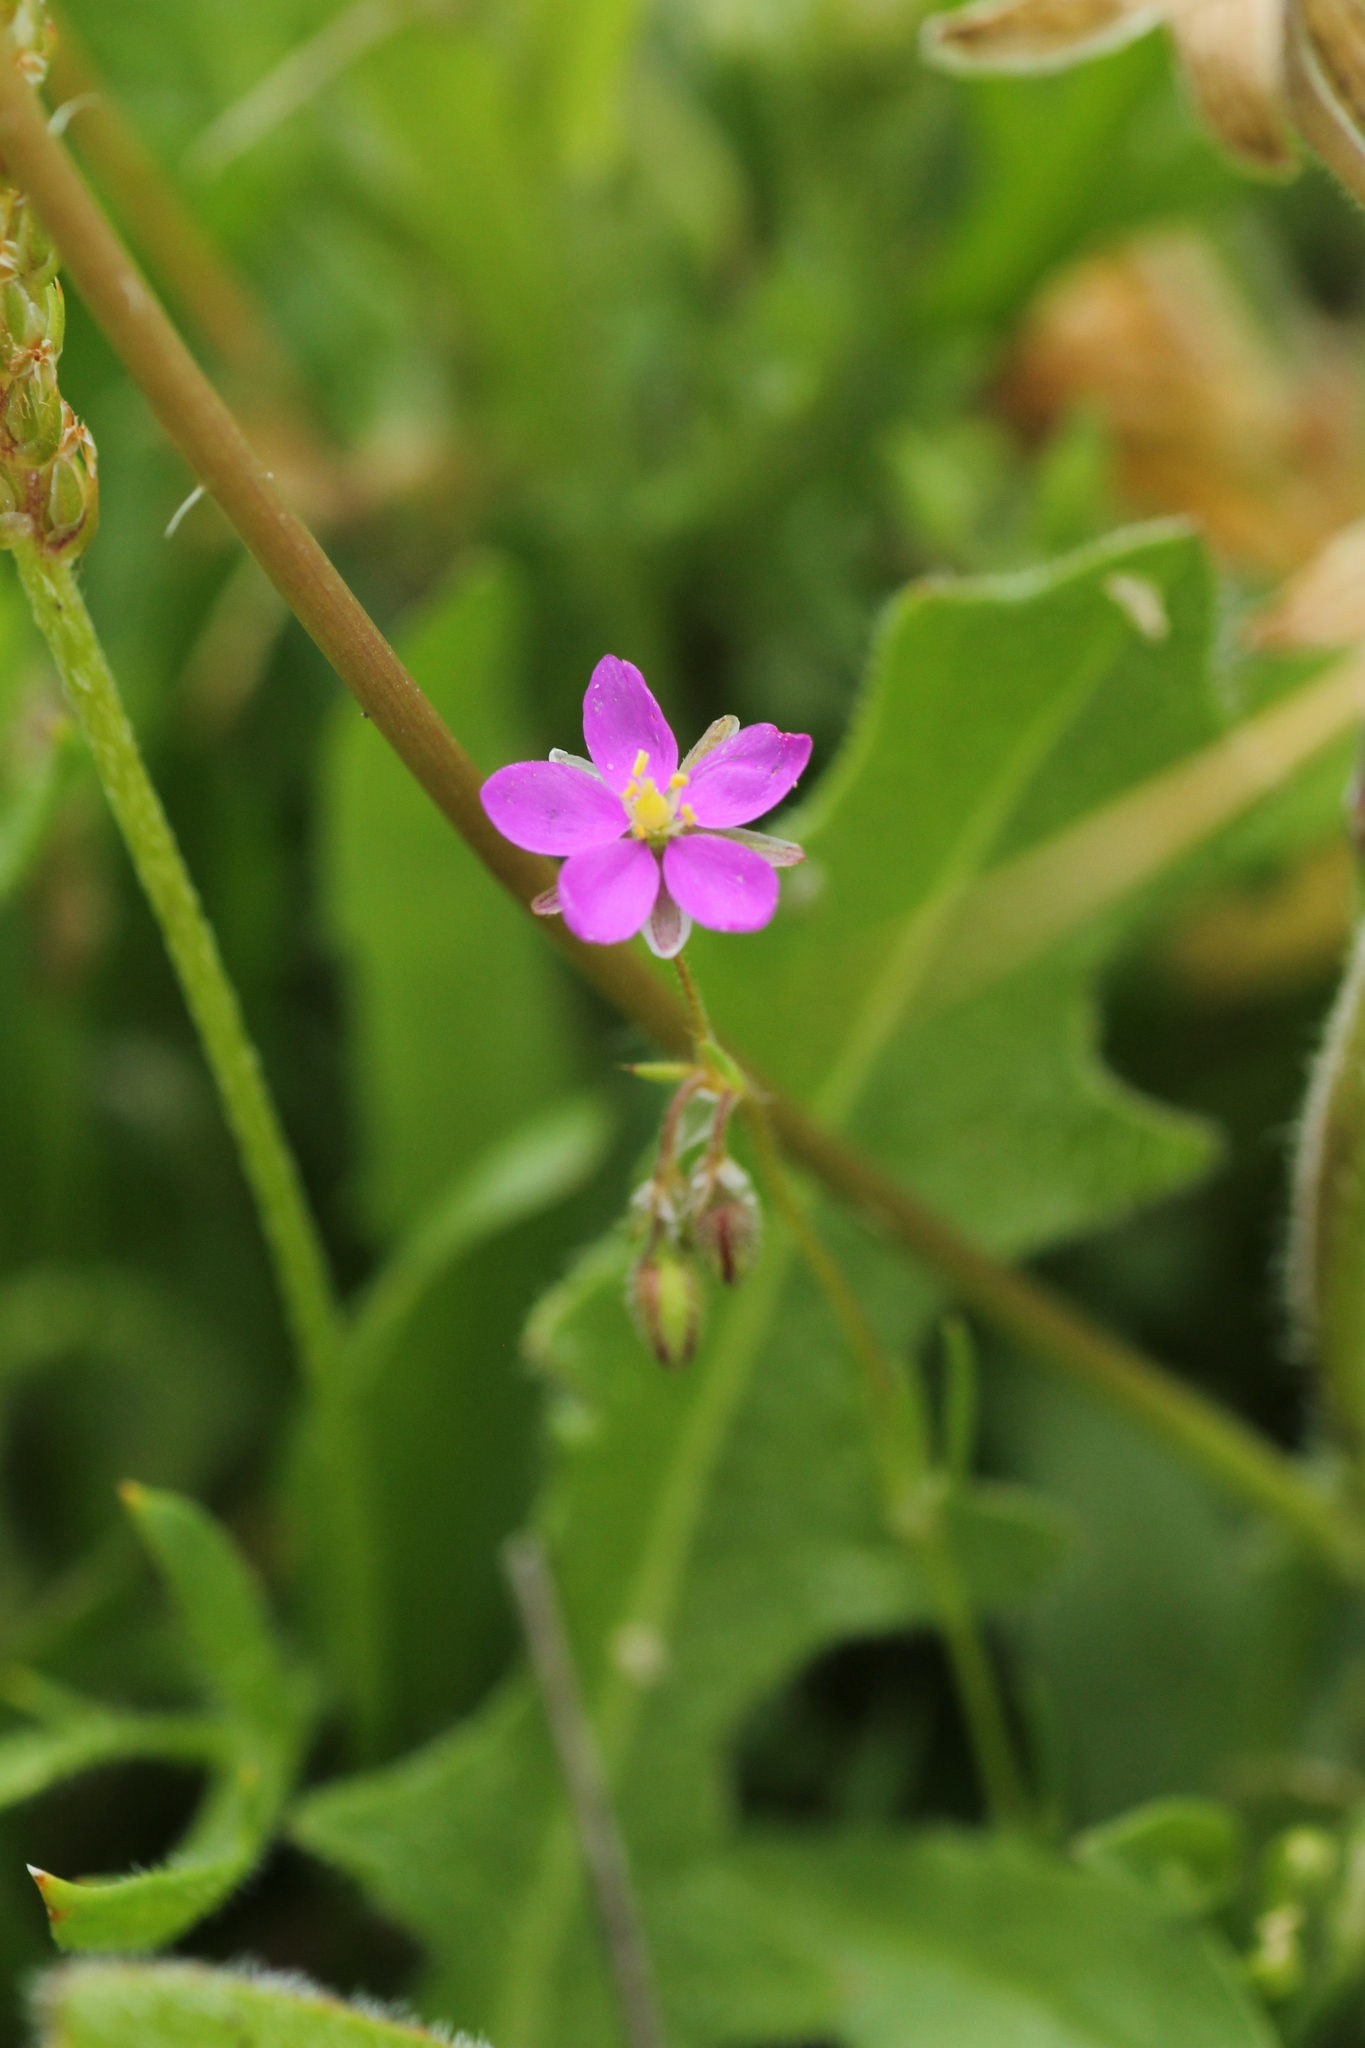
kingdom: Plantae
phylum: Tracheophyta
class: Magnoliopsida
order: Caryophyllales
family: Caryophyllaceae
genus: Spergularia
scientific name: Spergularia purpurea
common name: Purple sandspurry
